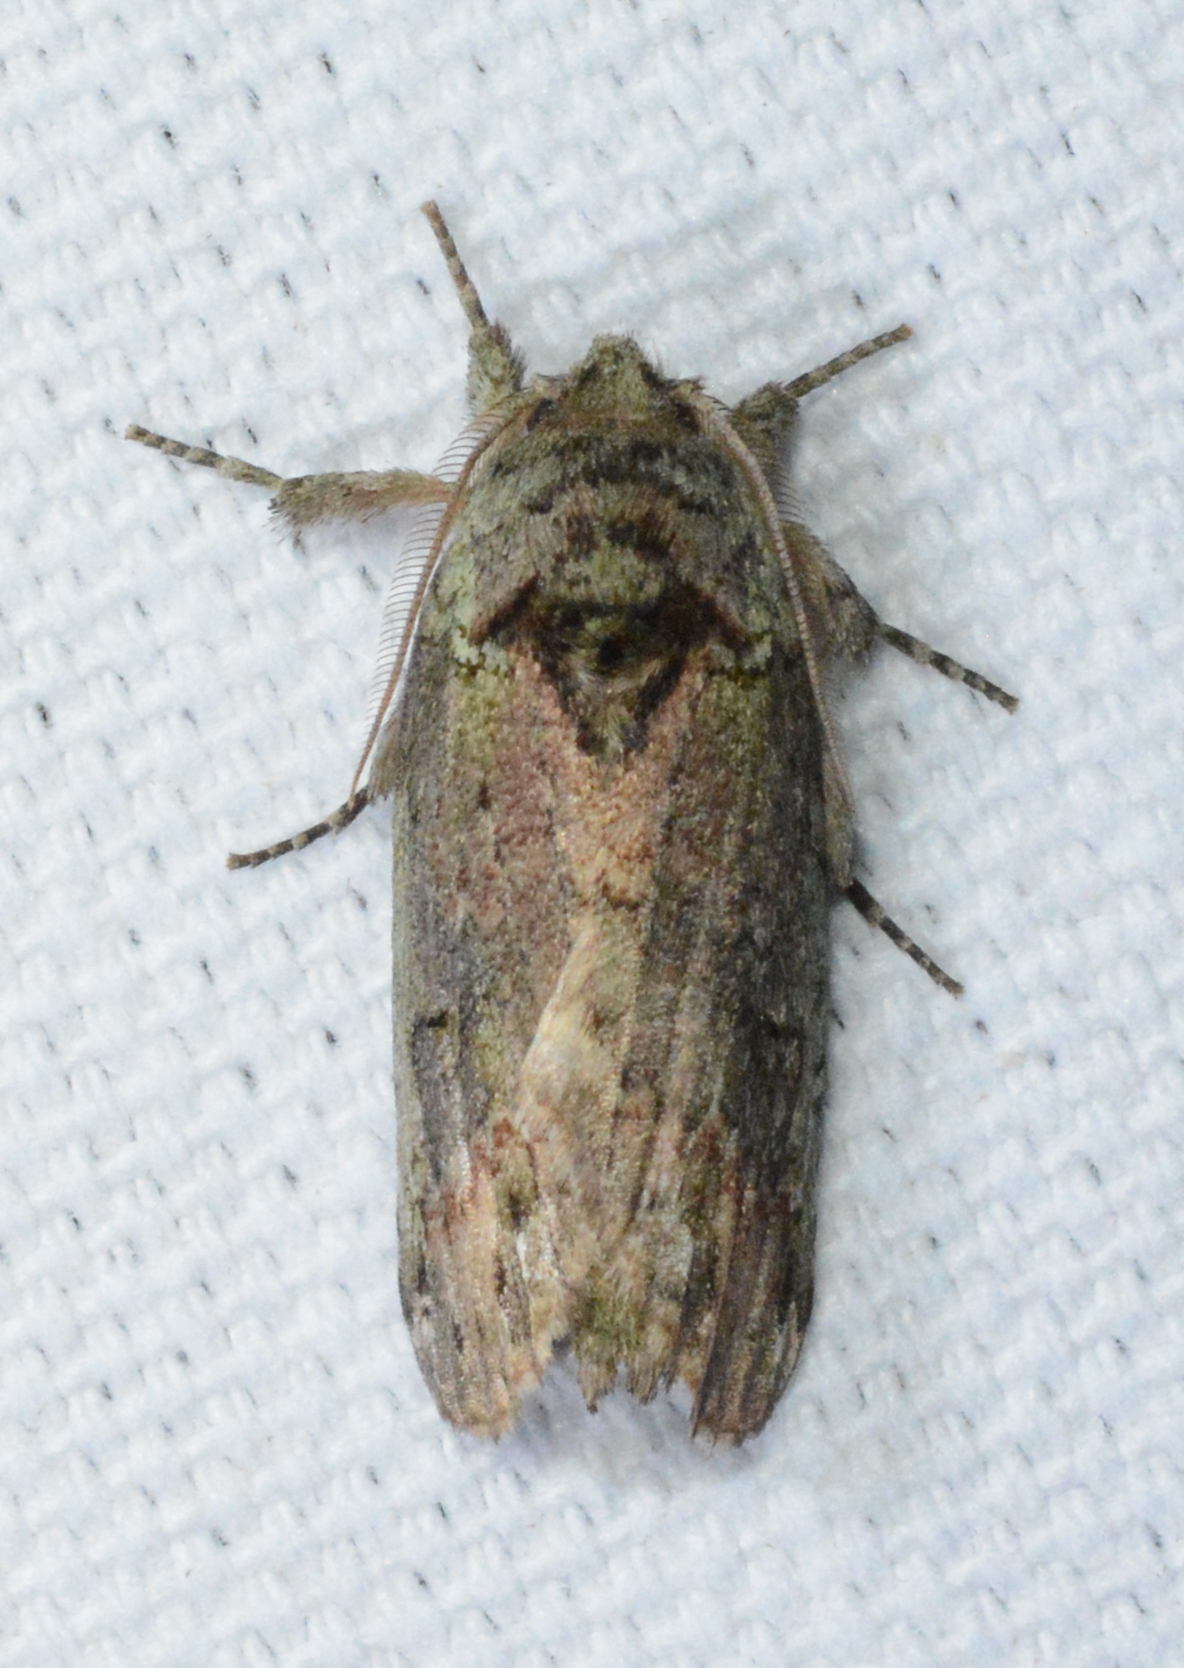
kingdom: Animalia
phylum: Arthropoda
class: Insecta
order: Lepidoptera
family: Notodontidae
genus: Schizura
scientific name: Schizura
